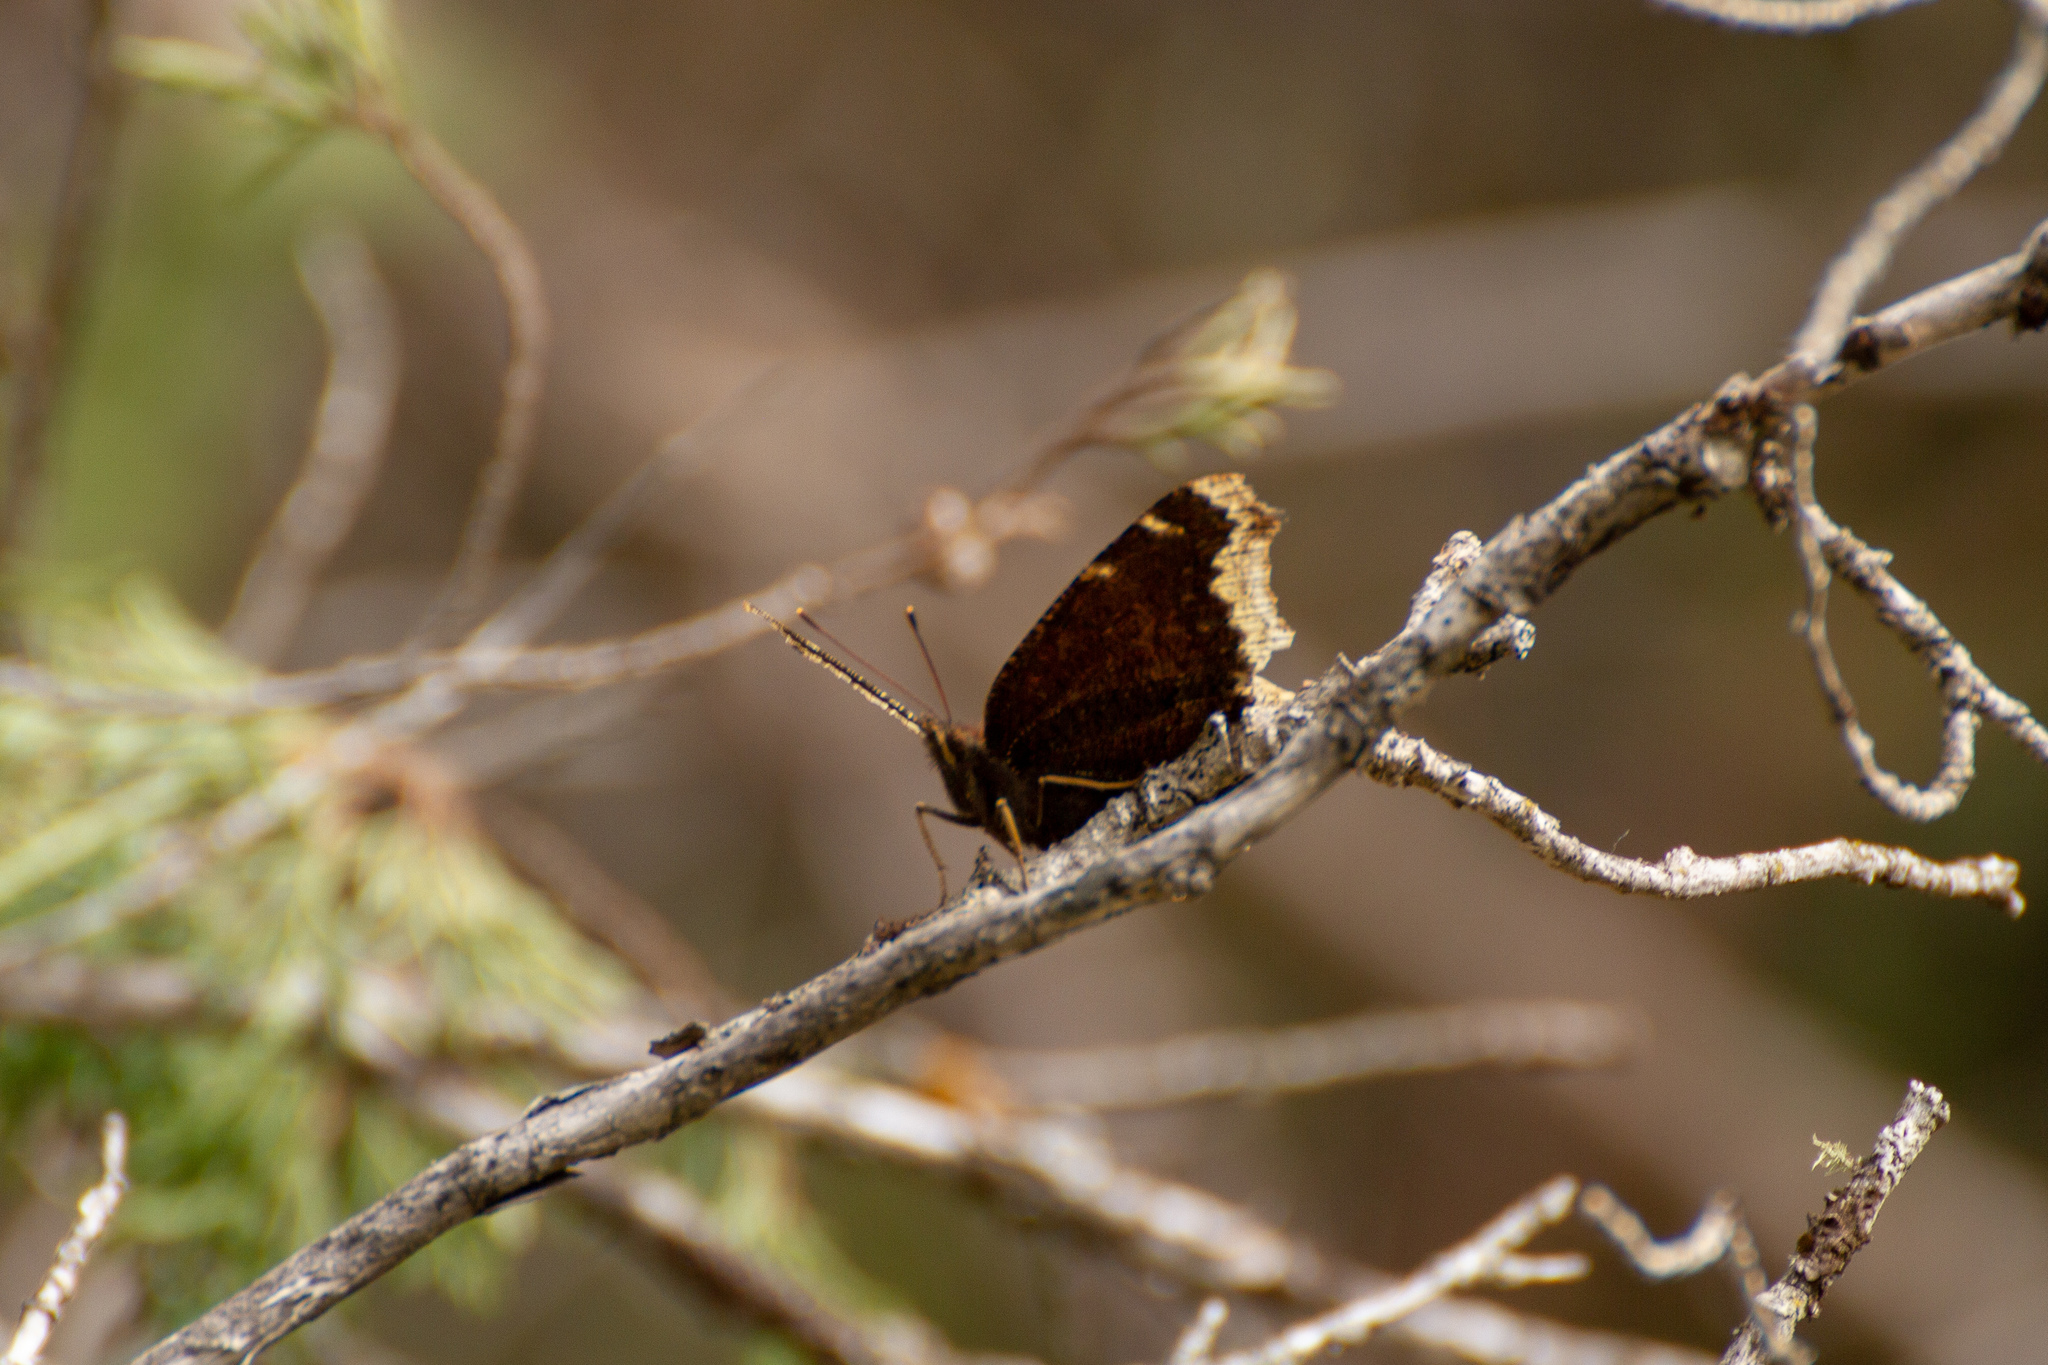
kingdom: Animalia
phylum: Arthropoda
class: Insecta
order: Lepidoptera
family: Nymphalidae
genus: Nymphalis
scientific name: Nymphalis antiopa
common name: Camberwell beauty
